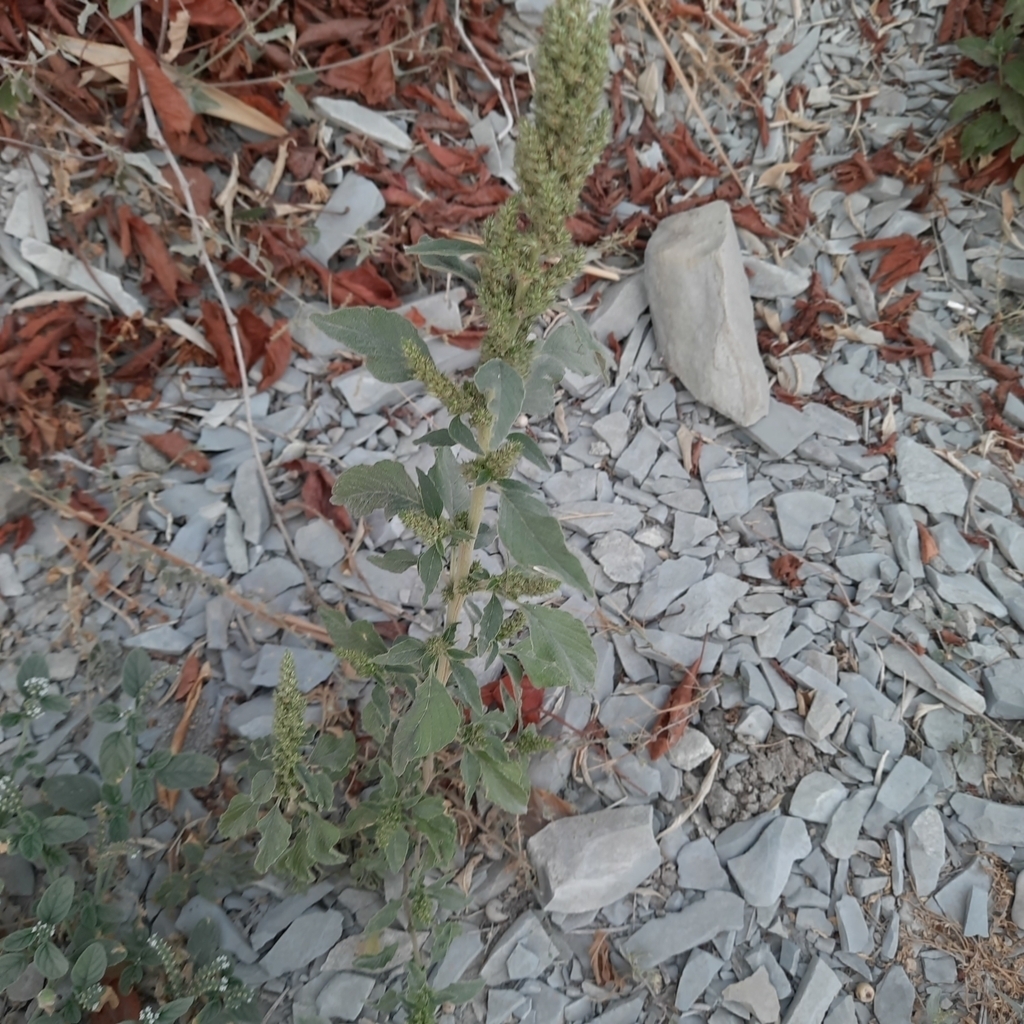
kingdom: Plantae
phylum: Tracheophyta
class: Magnoliopsida
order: Caryophyllales
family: Amaranthaceae
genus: Amaranthus
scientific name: Amaranthus retroflexus
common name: Redroot amaranth
